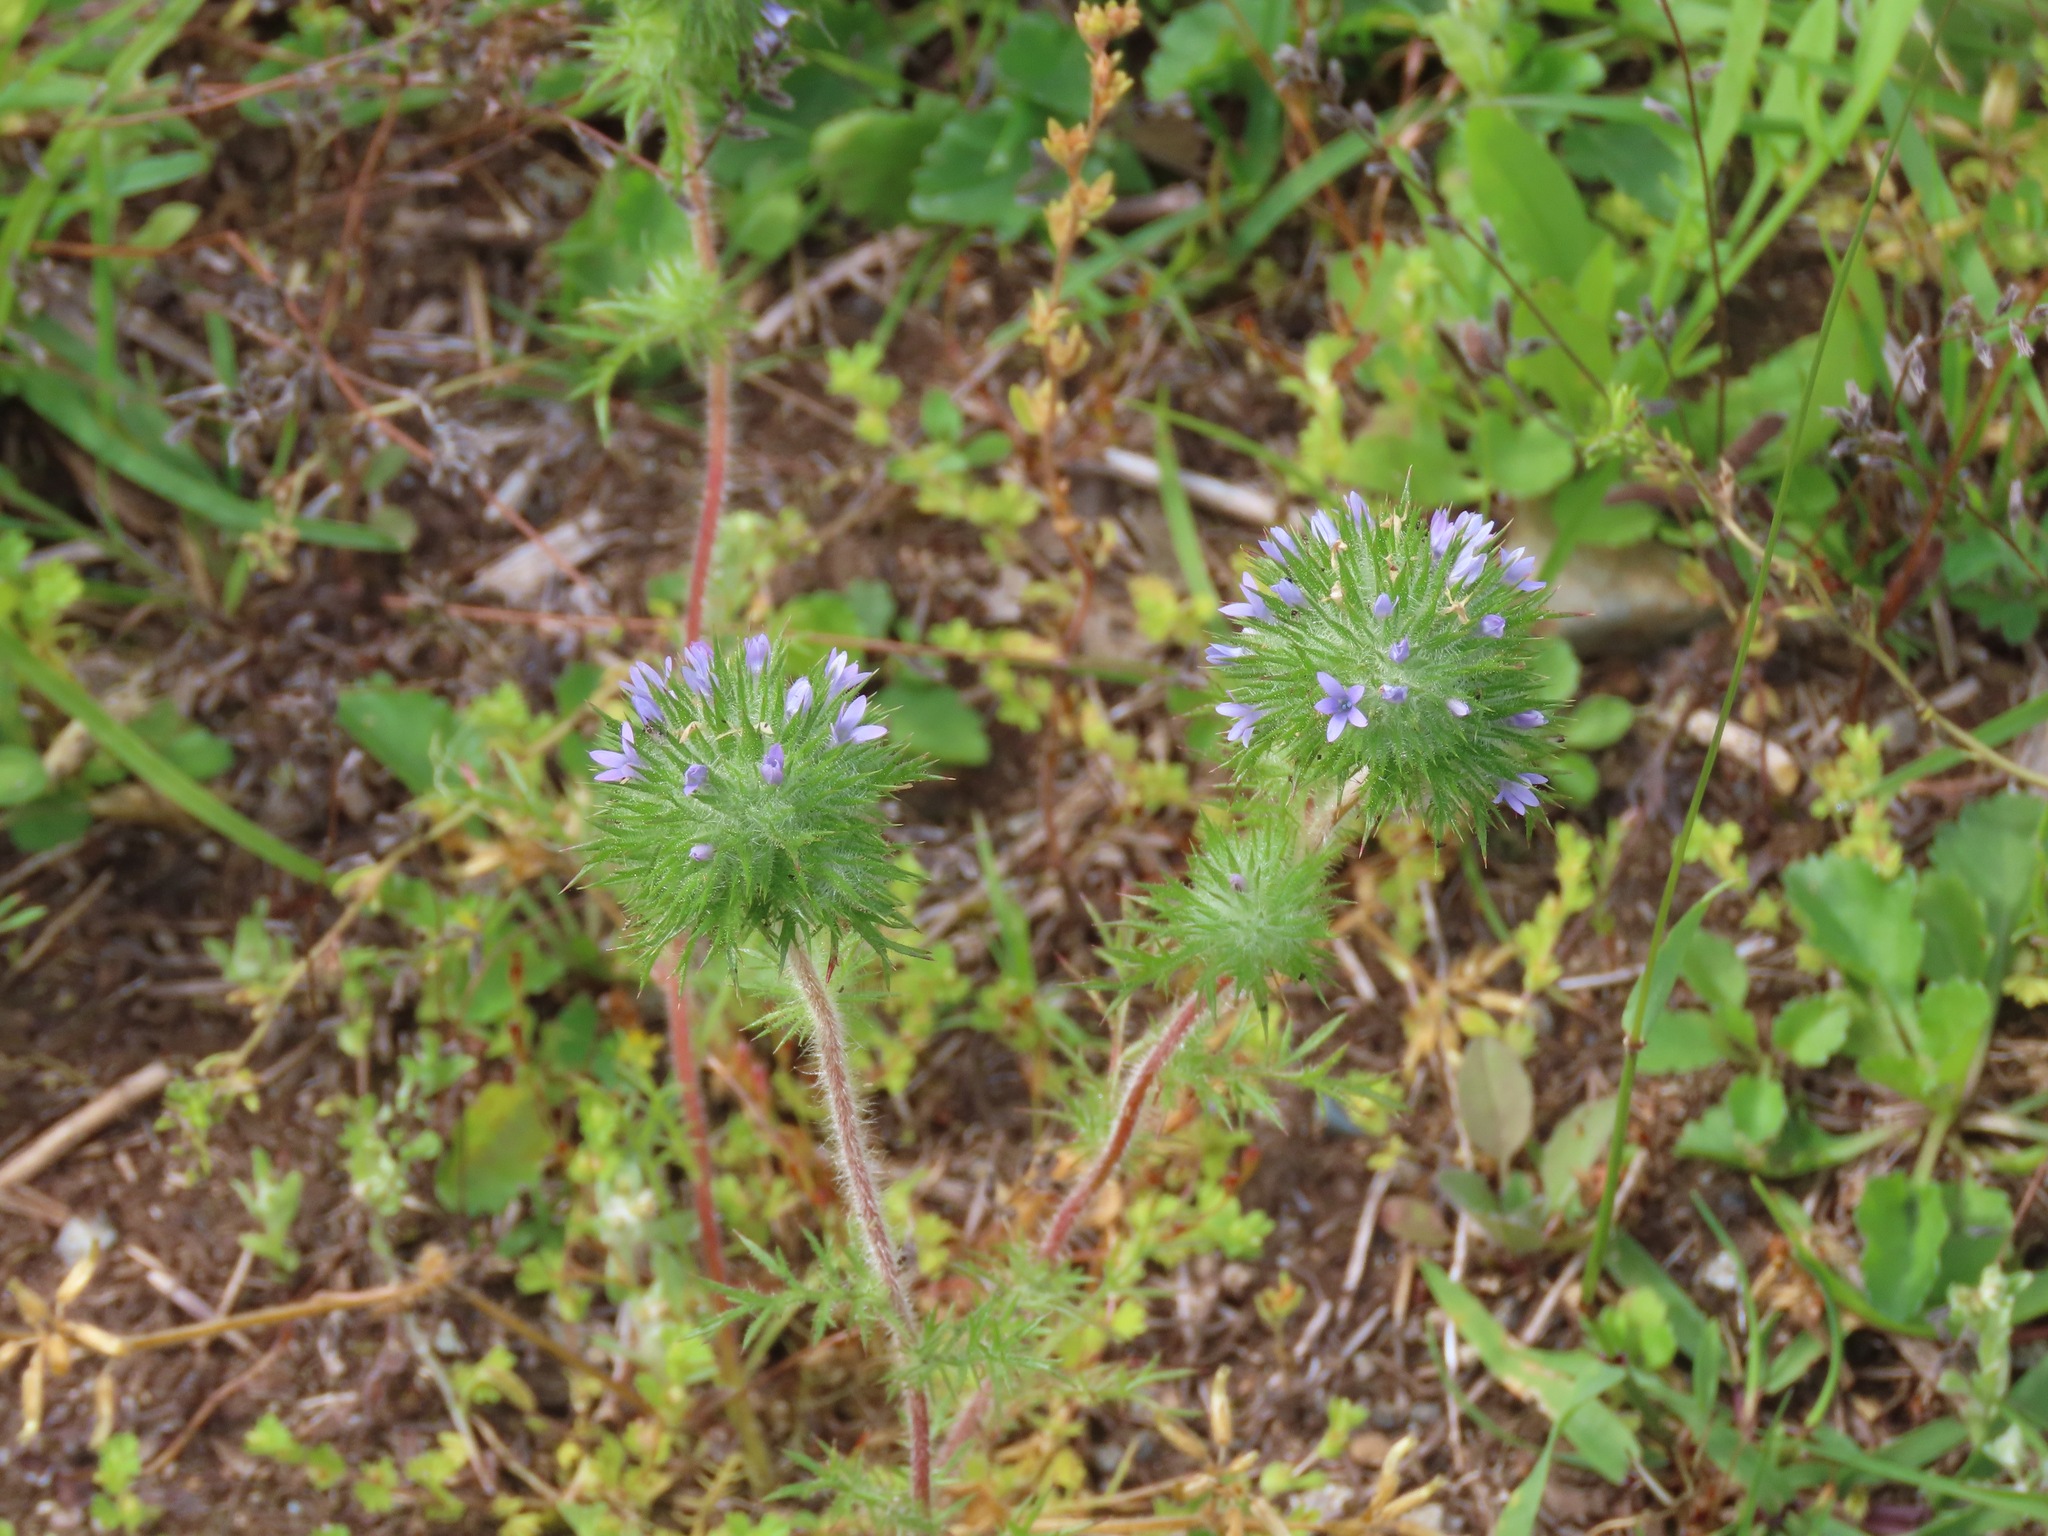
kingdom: Plantae
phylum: Tracheophyta
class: Magnoliopsida
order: Ericales
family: Polemoniaceae
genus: Navarretia
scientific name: Navarretia squarrosa
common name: Skunkweed
